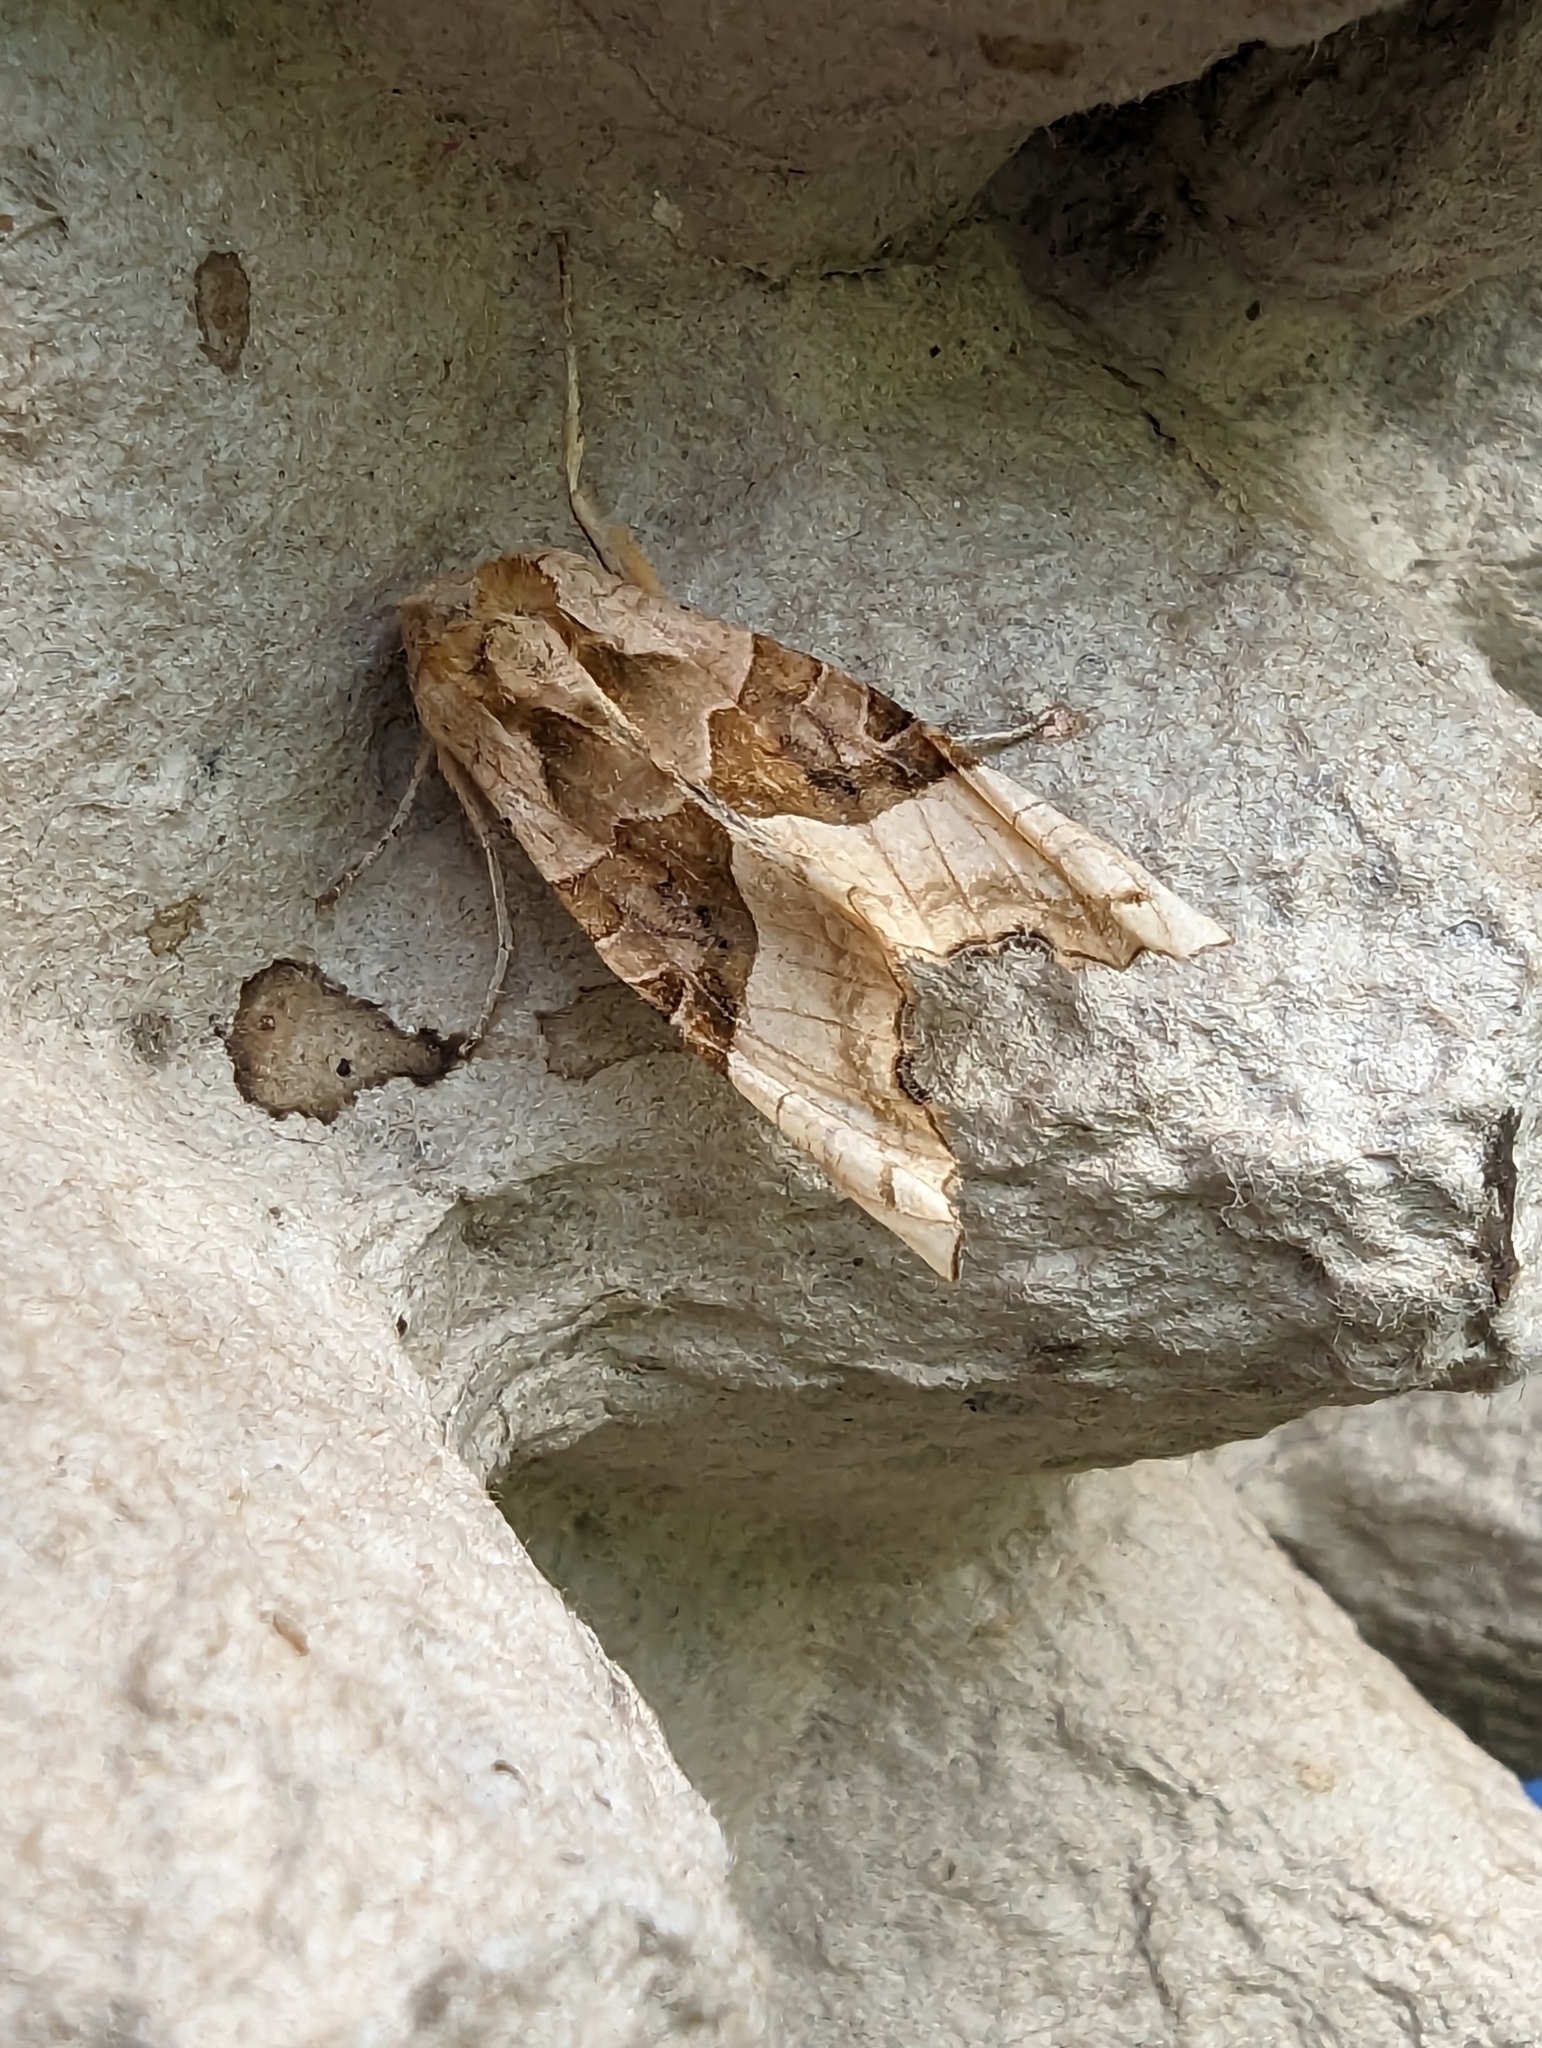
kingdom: Animalia
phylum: Arthropoda
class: Insecta
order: Lepidoptera
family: Noctuidae
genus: Phlogophora
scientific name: Phlogophora meticulosa
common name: Angle shades
